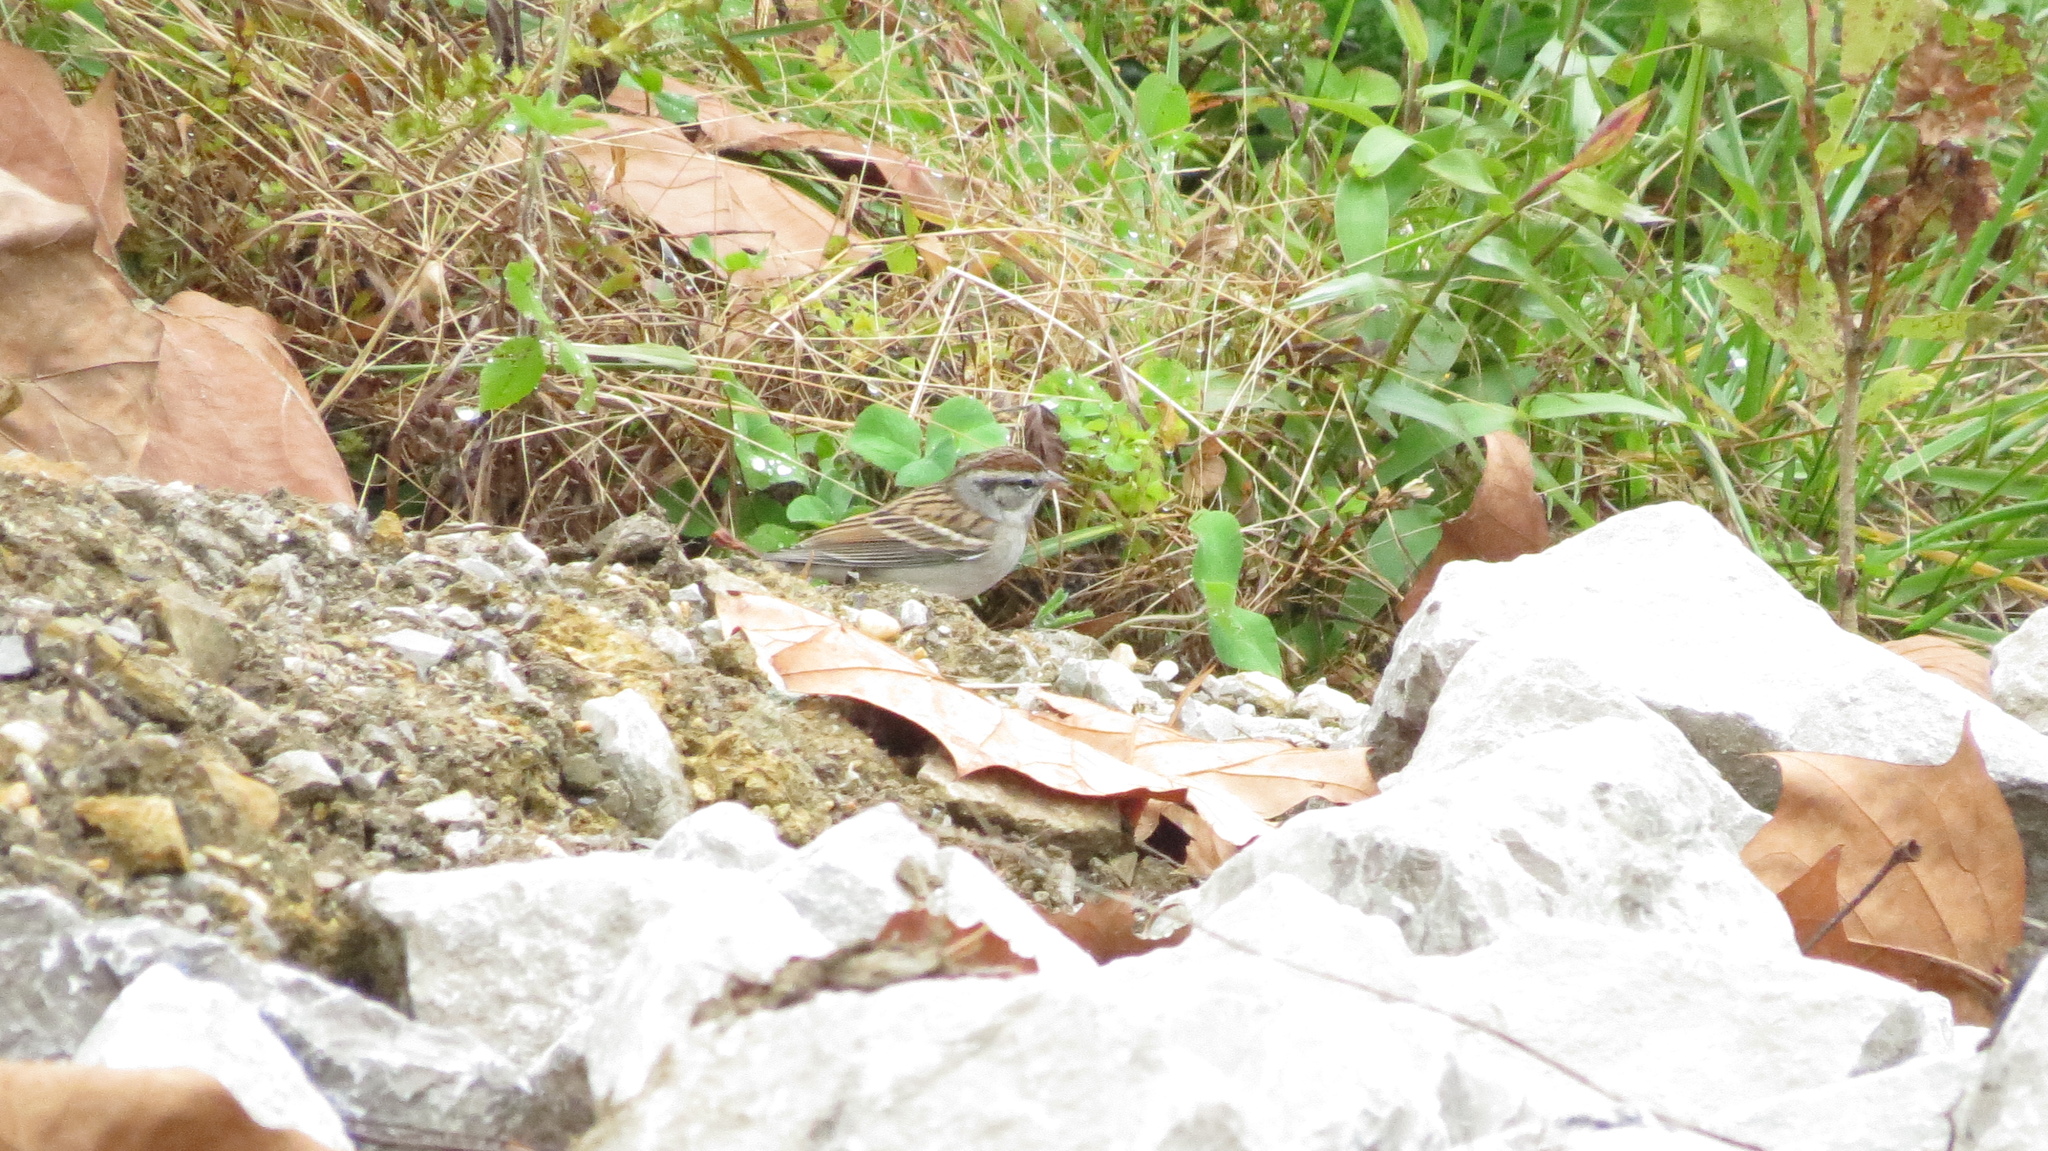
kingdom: Animalia
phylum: Chordata
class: Aves
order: Passeriformes
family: Passerellidae
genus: Spizella
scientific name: Spizella passerina
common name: Chipping sparrow
